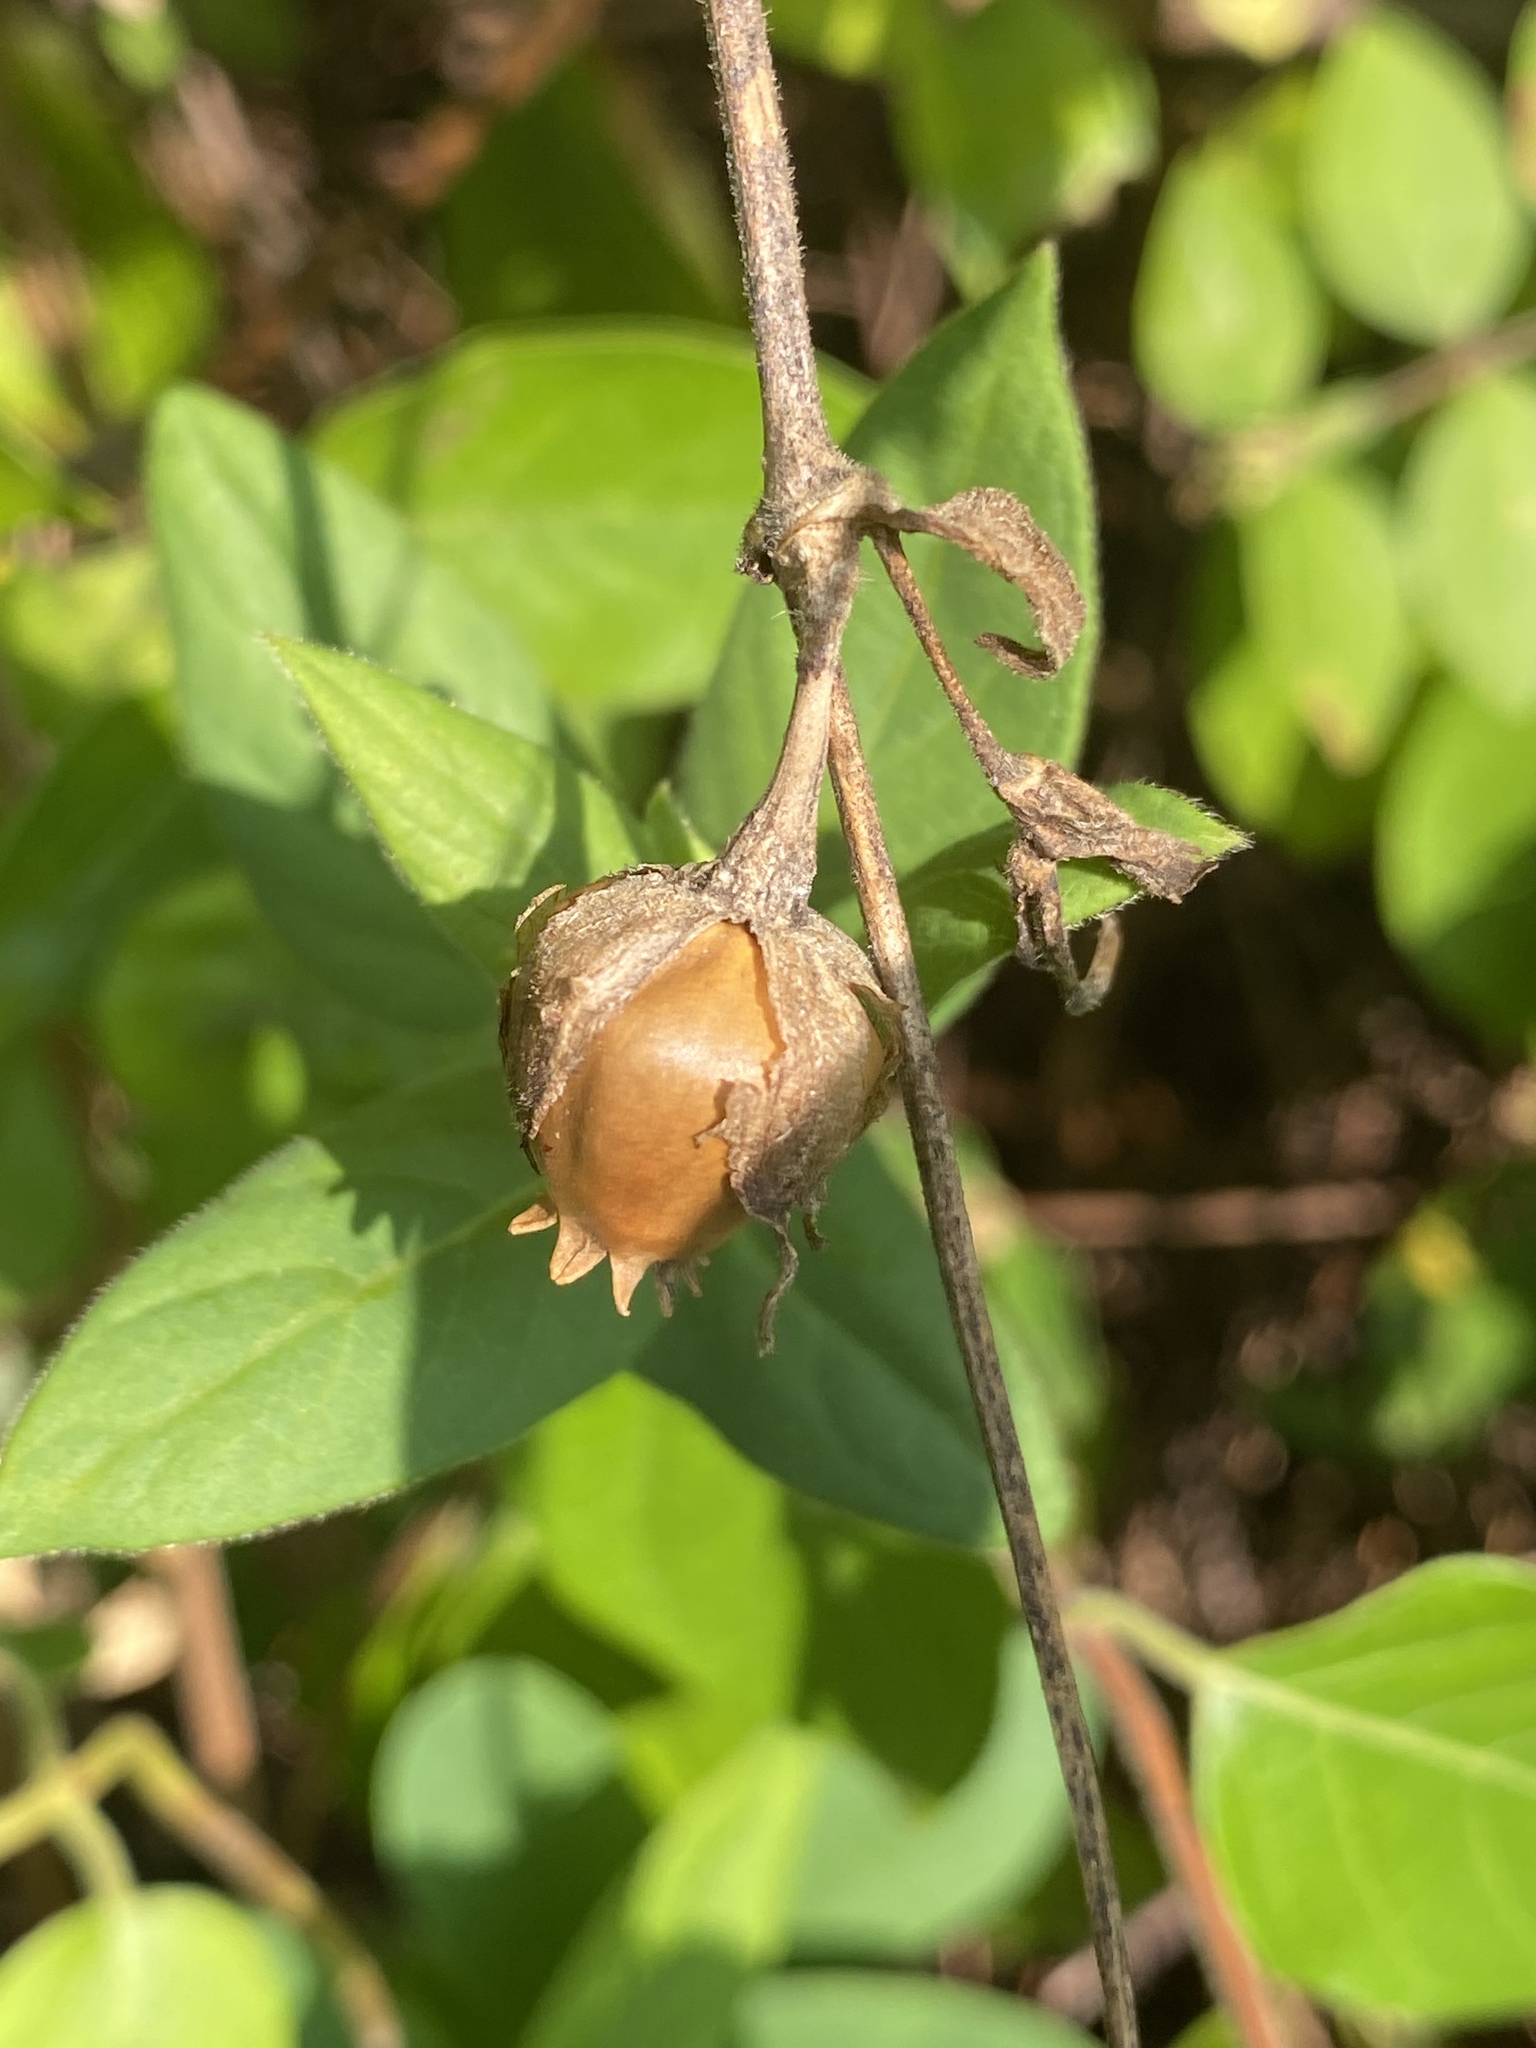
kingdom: Plantae
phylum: Tracheophyta
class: Magnoliopsida
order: Caryophyllales
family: Caryophyllaceae
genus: Silene
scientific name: Silene latifolia
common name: White campion
